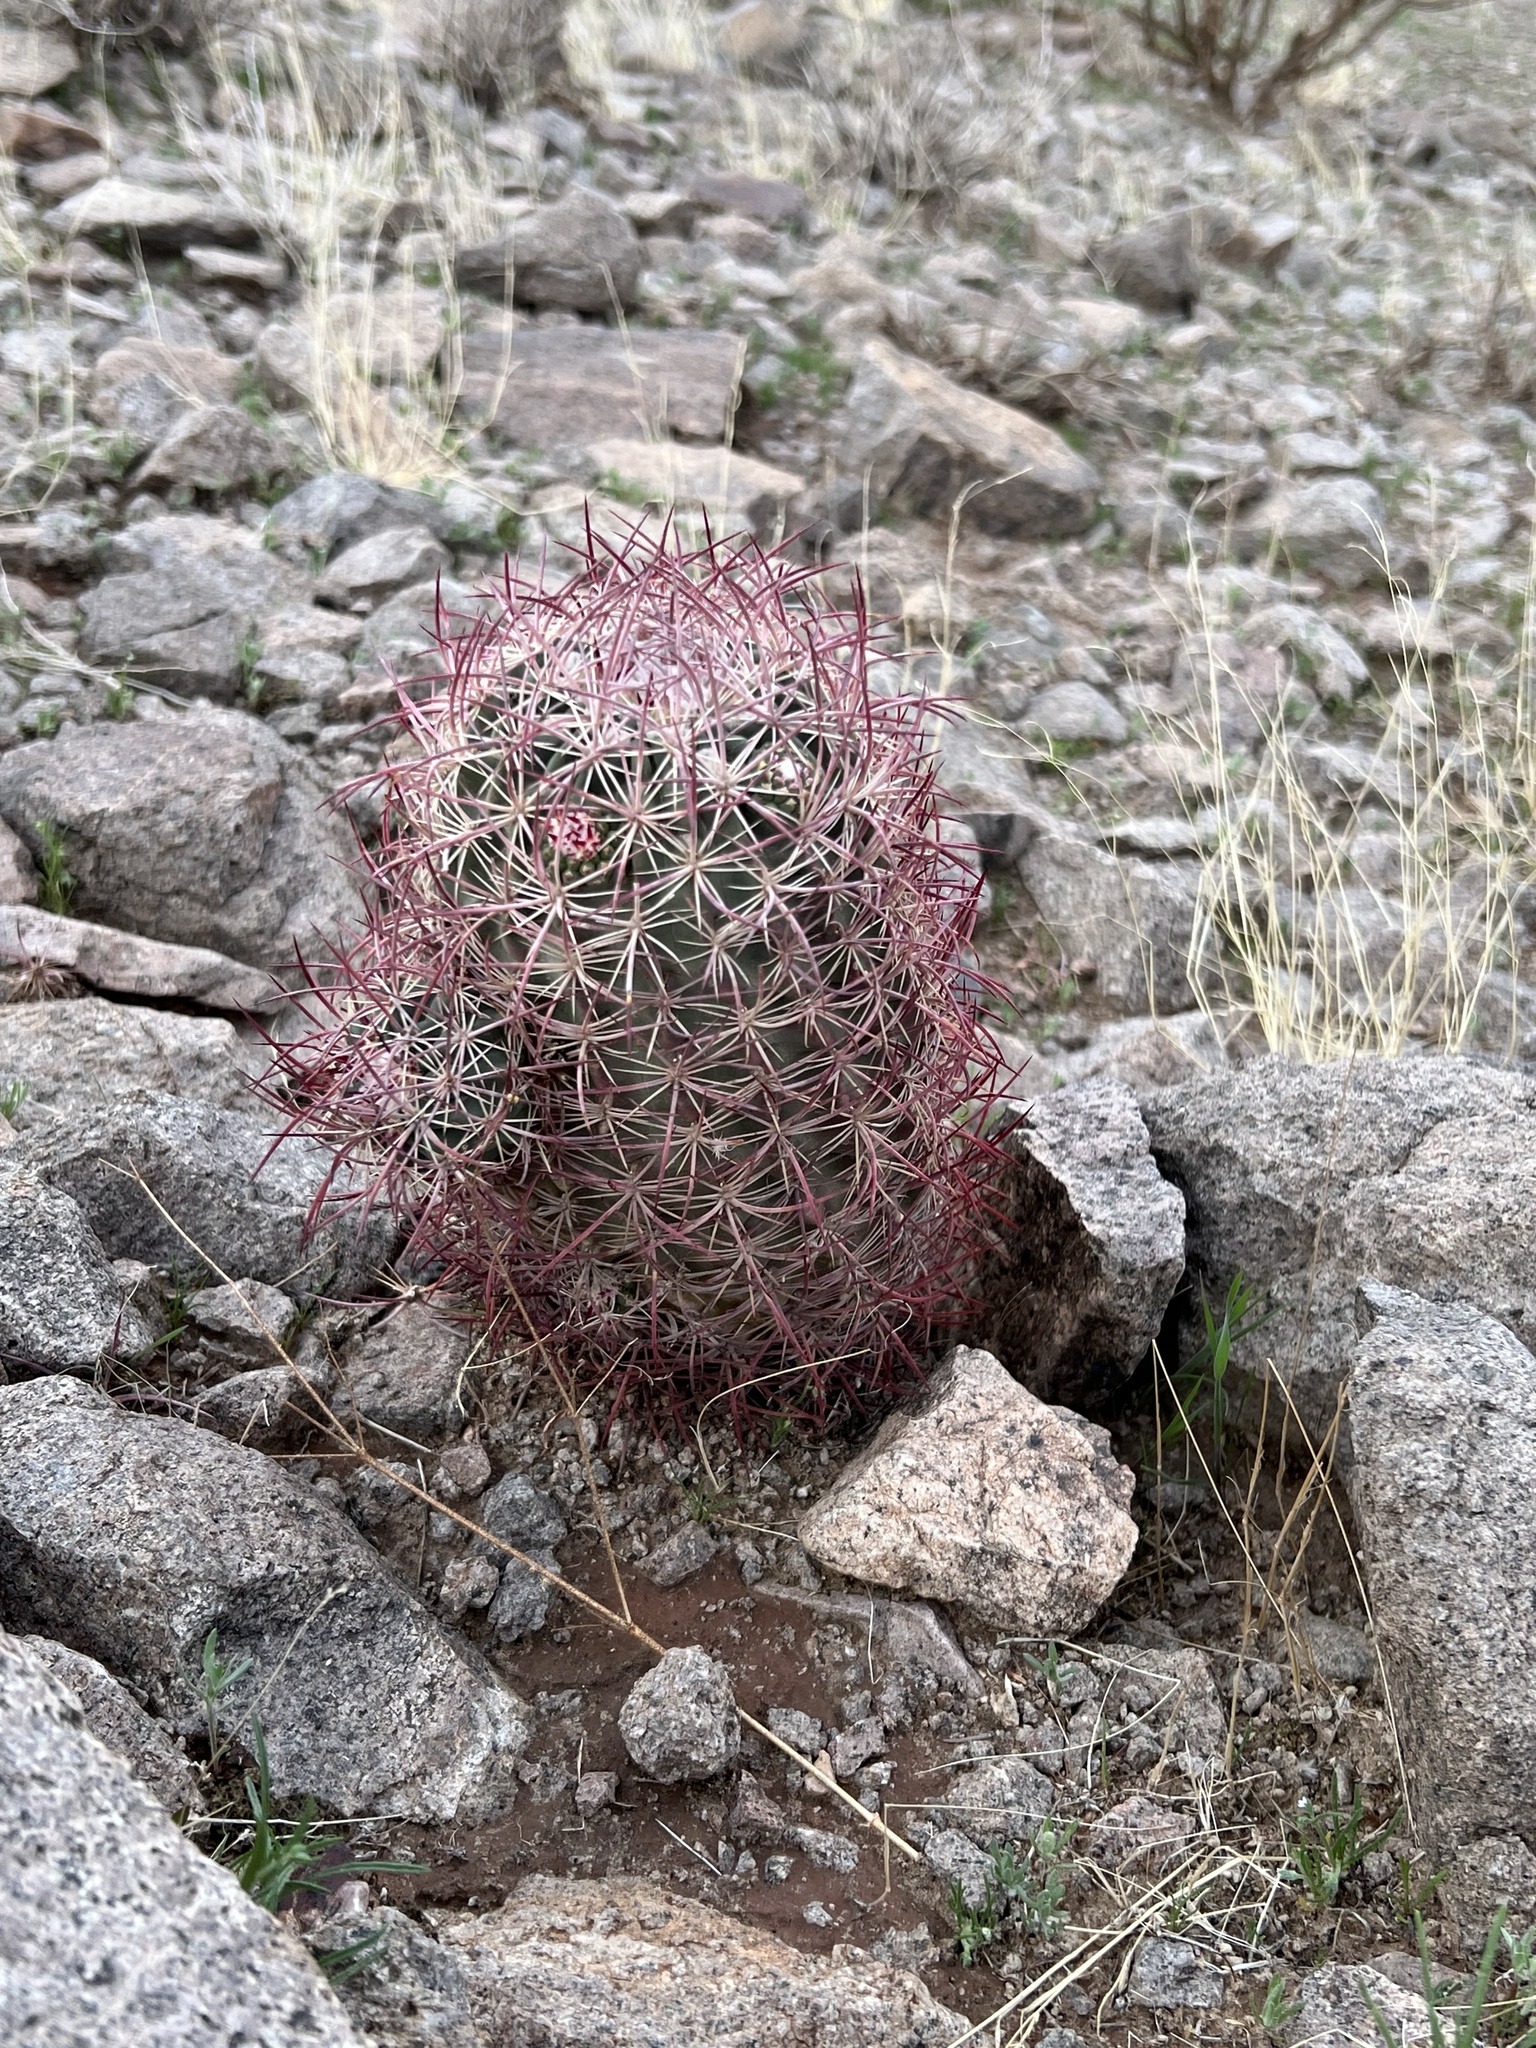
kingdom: Plantae
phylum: Tracheophyta
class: Magnoliopsida
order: Caryophyllales
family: Cactaceae
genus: Sclerocactus
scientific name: Sclerocactus johnsonii
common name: Eight-spine fishhook cactus
